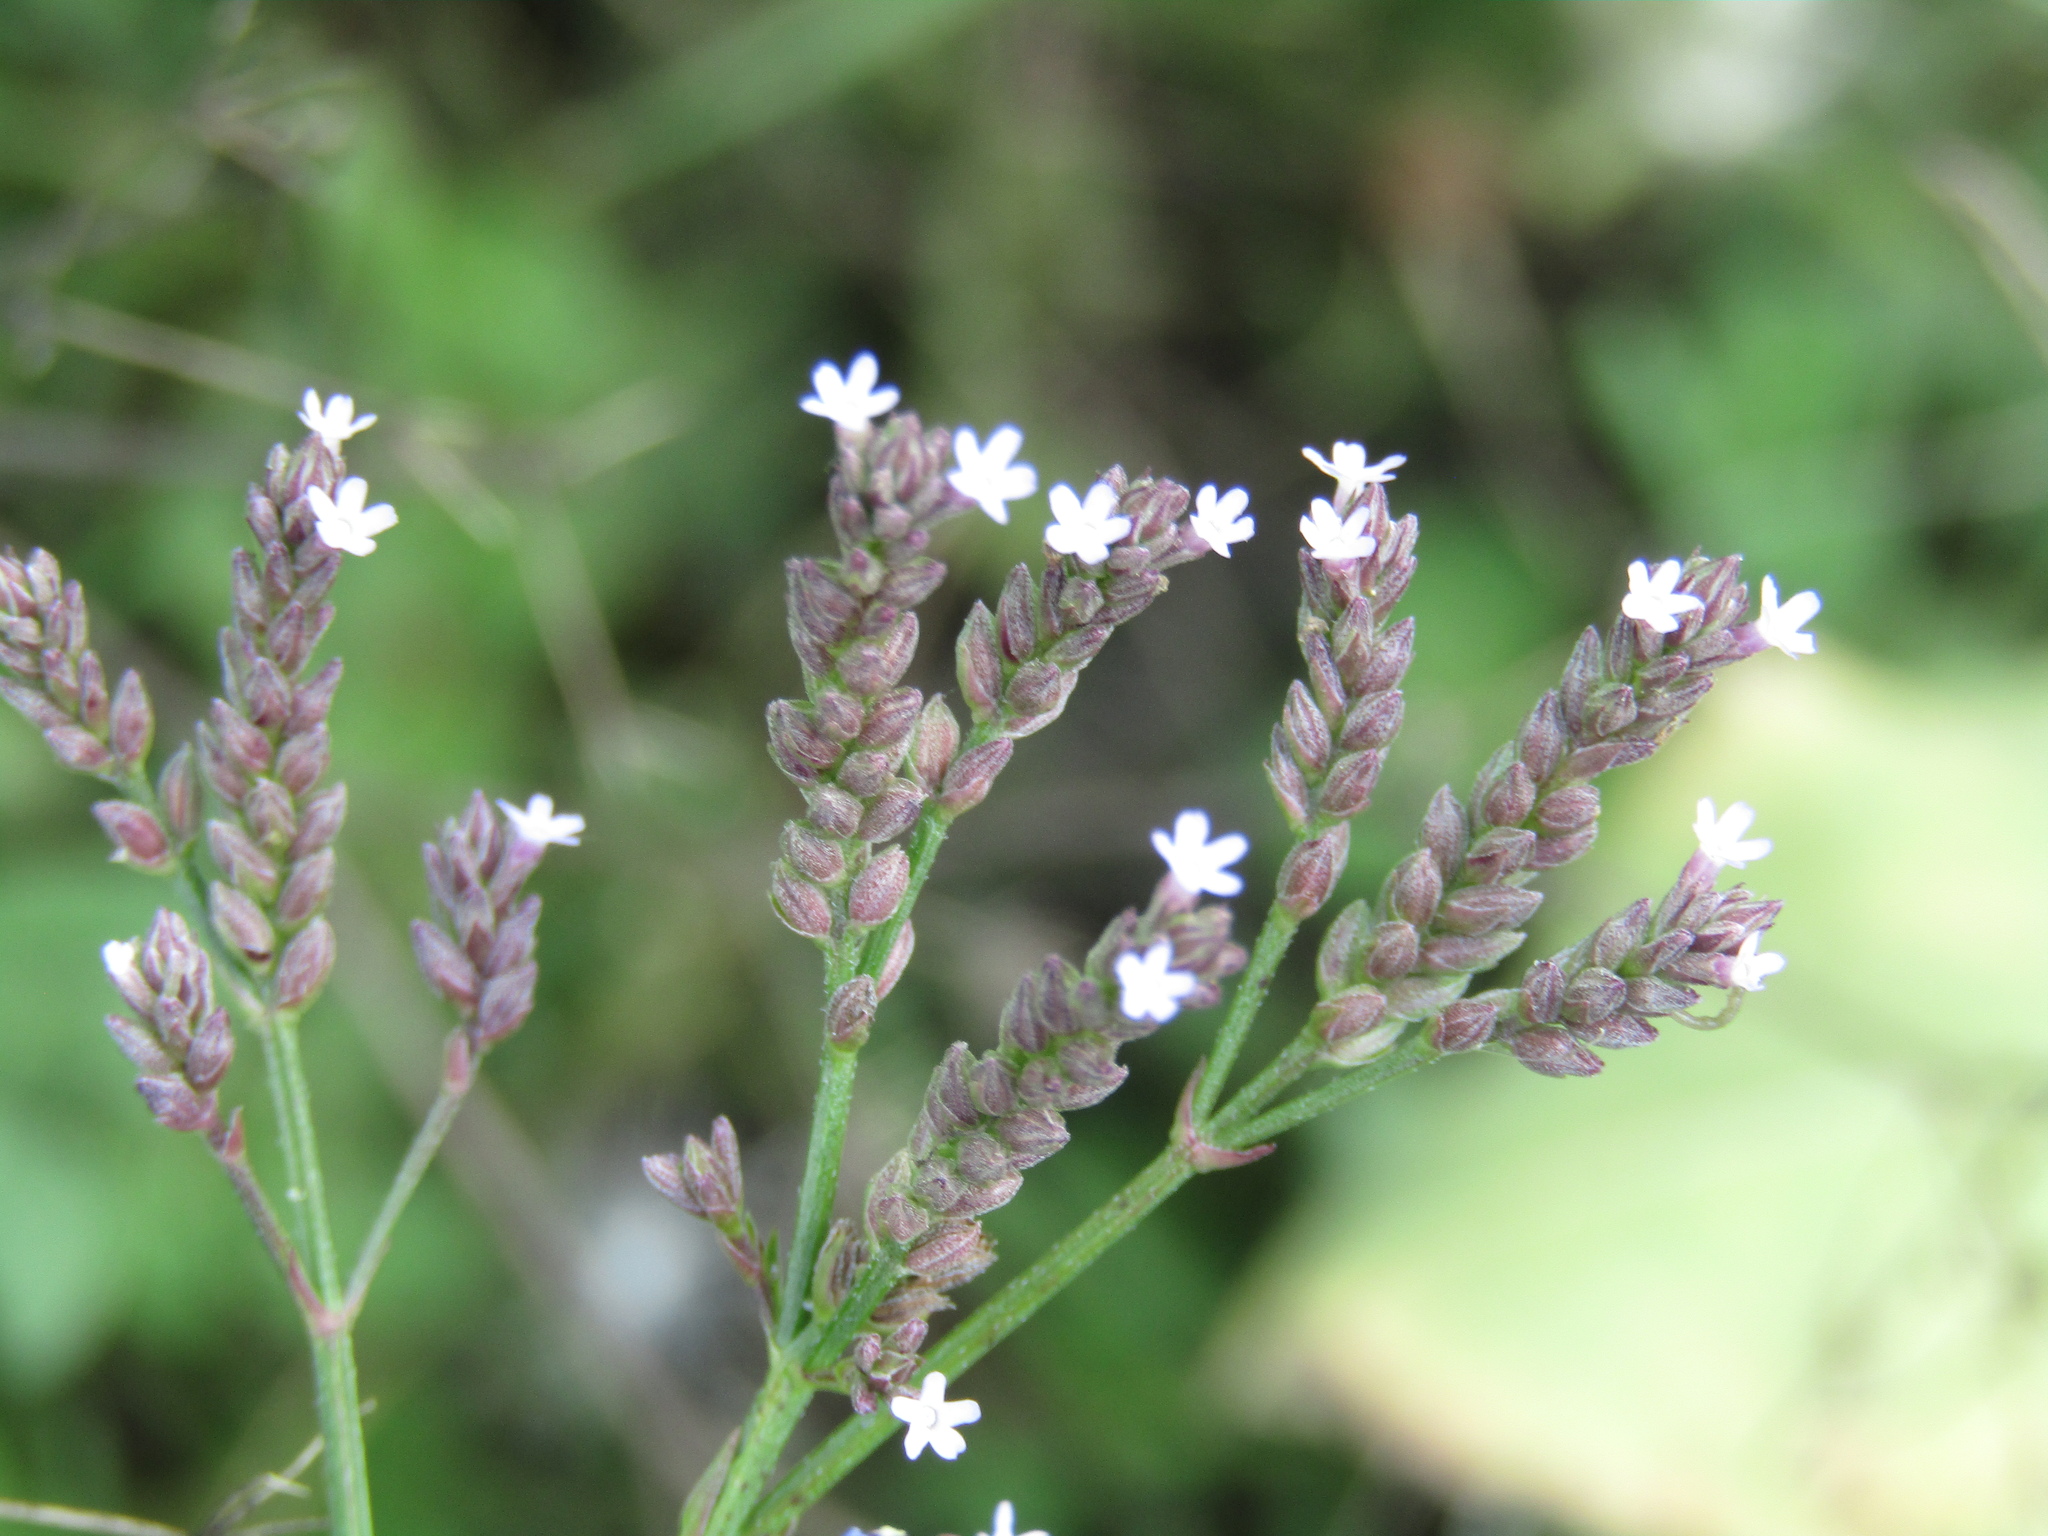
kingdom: Plantae
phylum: Tracheophyta
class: Magnoliopsida
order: Lamiales
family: Verbenaceae
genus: Verbena
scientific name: Verbena litoralis
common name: Seashore vervain
